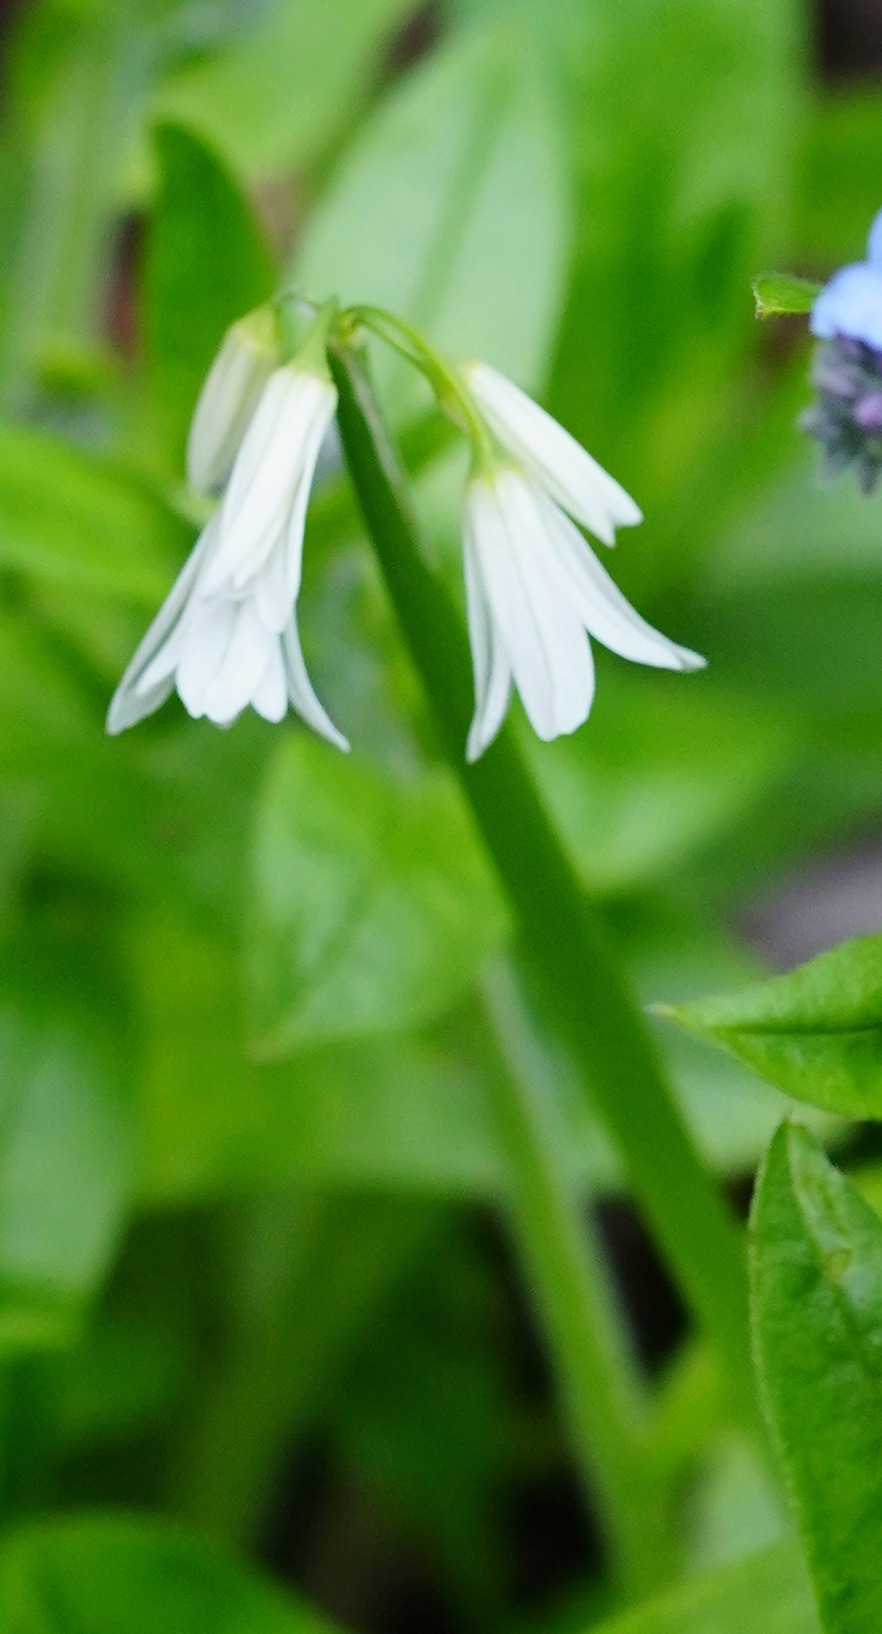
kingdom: Plantae
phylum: Tracheophyta
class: Liliopsida
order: Asparagales
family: Amaryllidaceae
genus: Allium
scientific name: Allium triquetrum
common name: Three-cornered garlic
